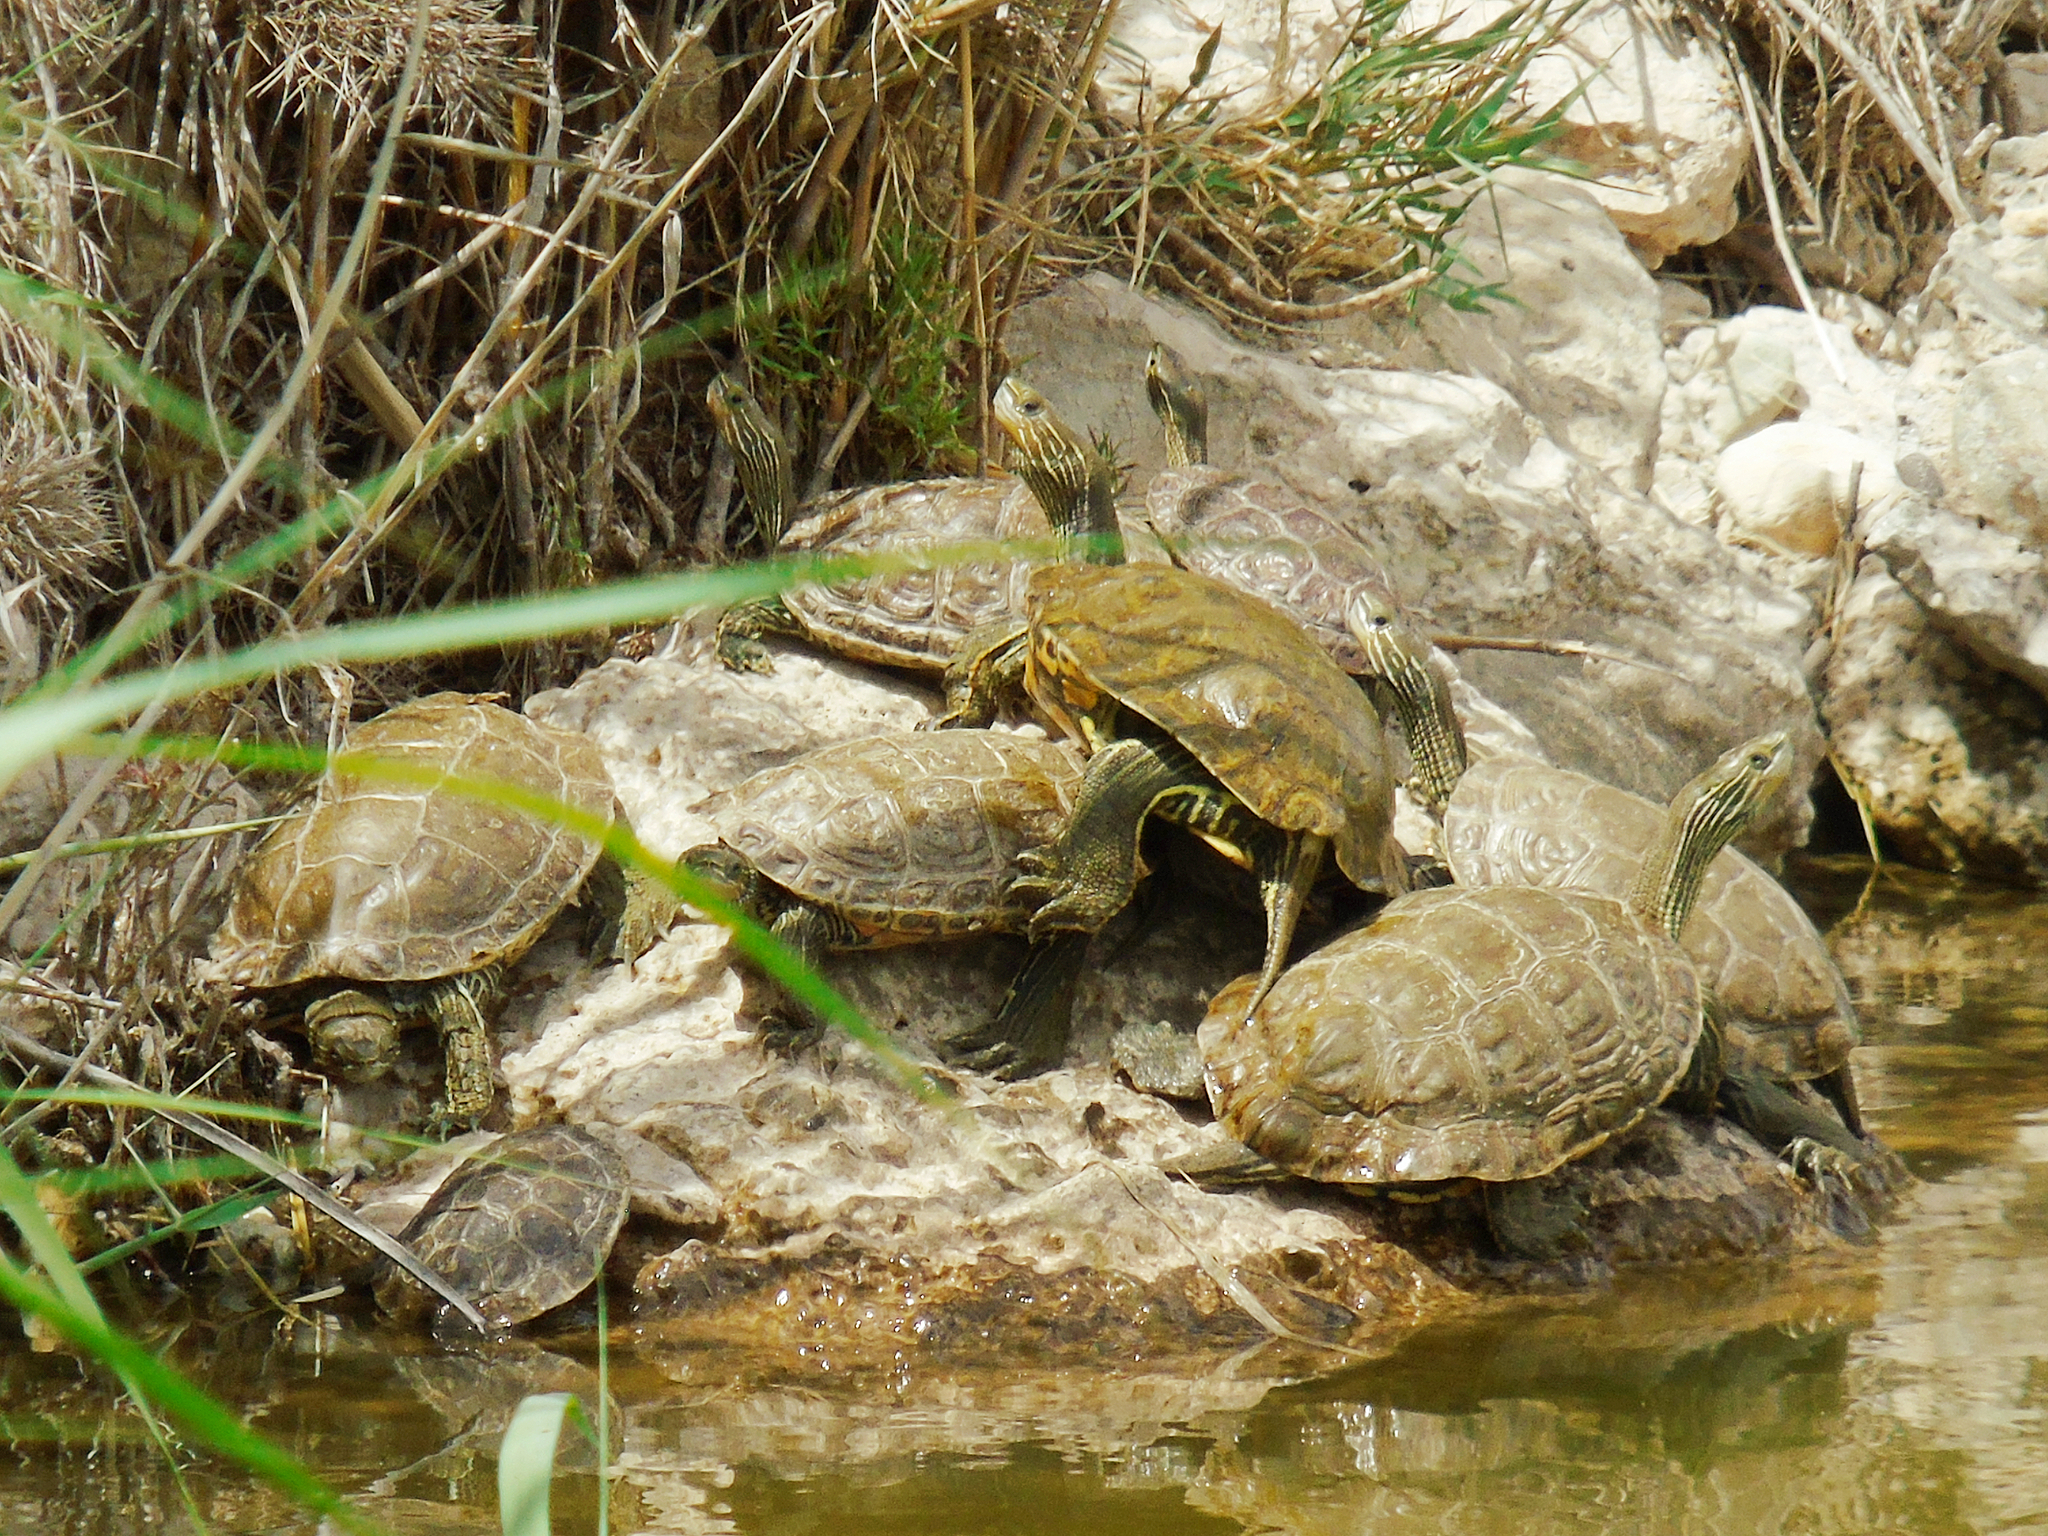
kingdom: Animalia
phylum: Chordata
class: Testudines
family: Geoemydidae
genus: Mauremys
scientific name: Mauremys caspica
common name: Caspian turtle
